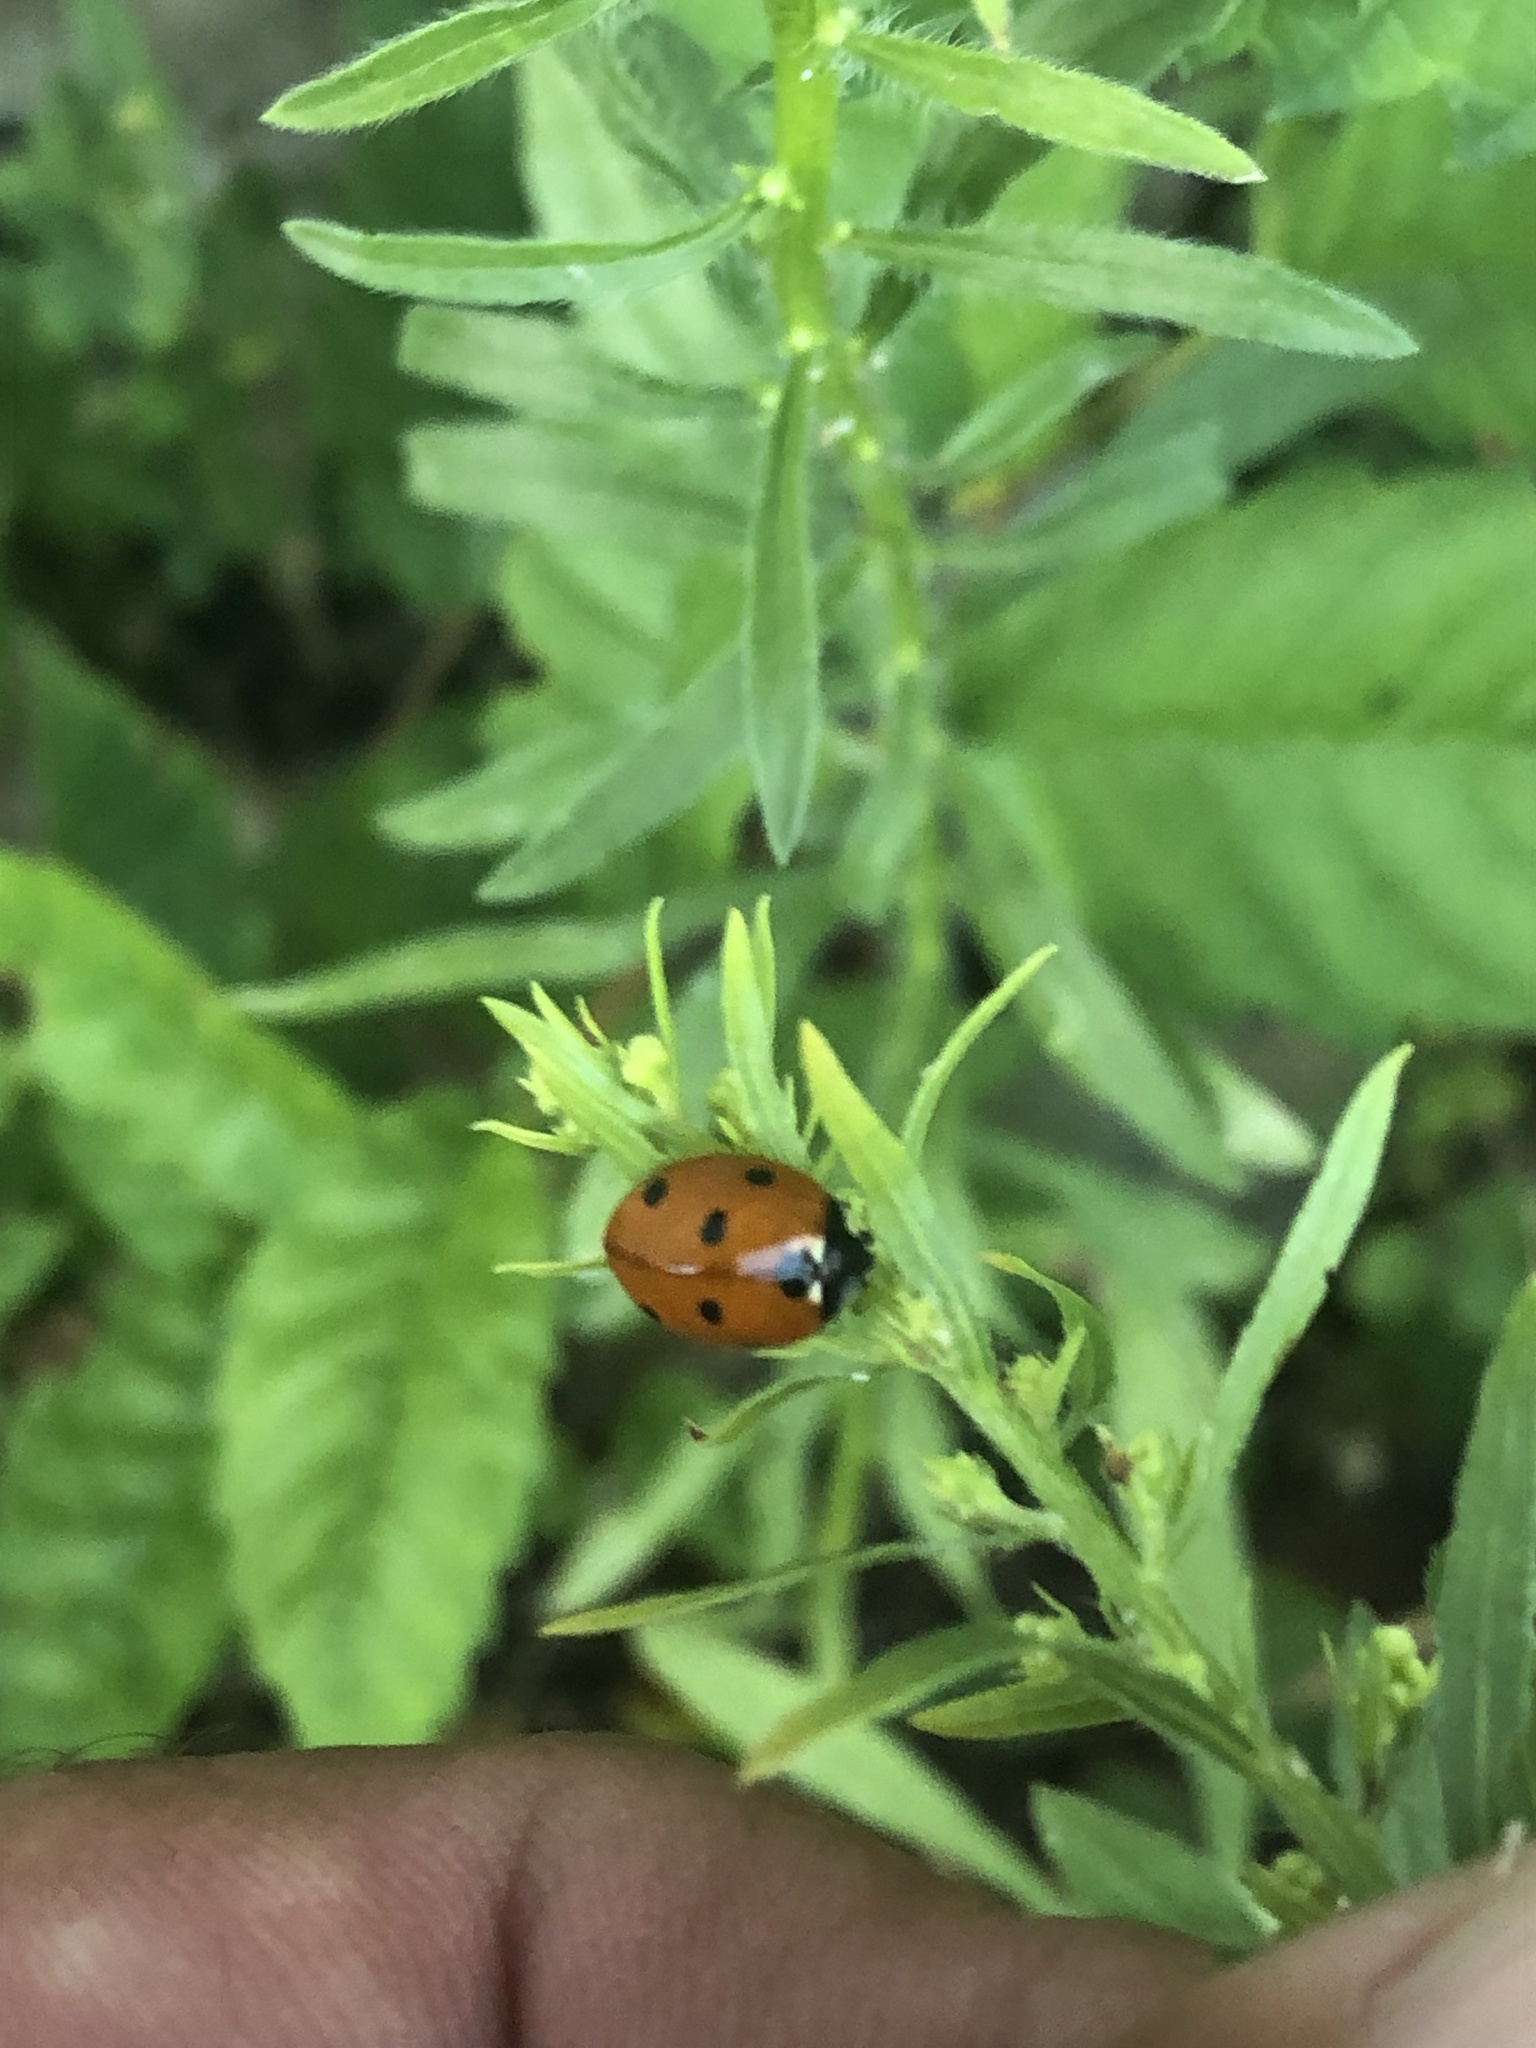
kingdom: Animalia
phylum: Arthropoda
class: Insecta
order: Coleoptera
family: Coccinellidae
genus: Coccinella
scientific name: Coccinella septempunctata
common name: Sevenspotted lady beetle
